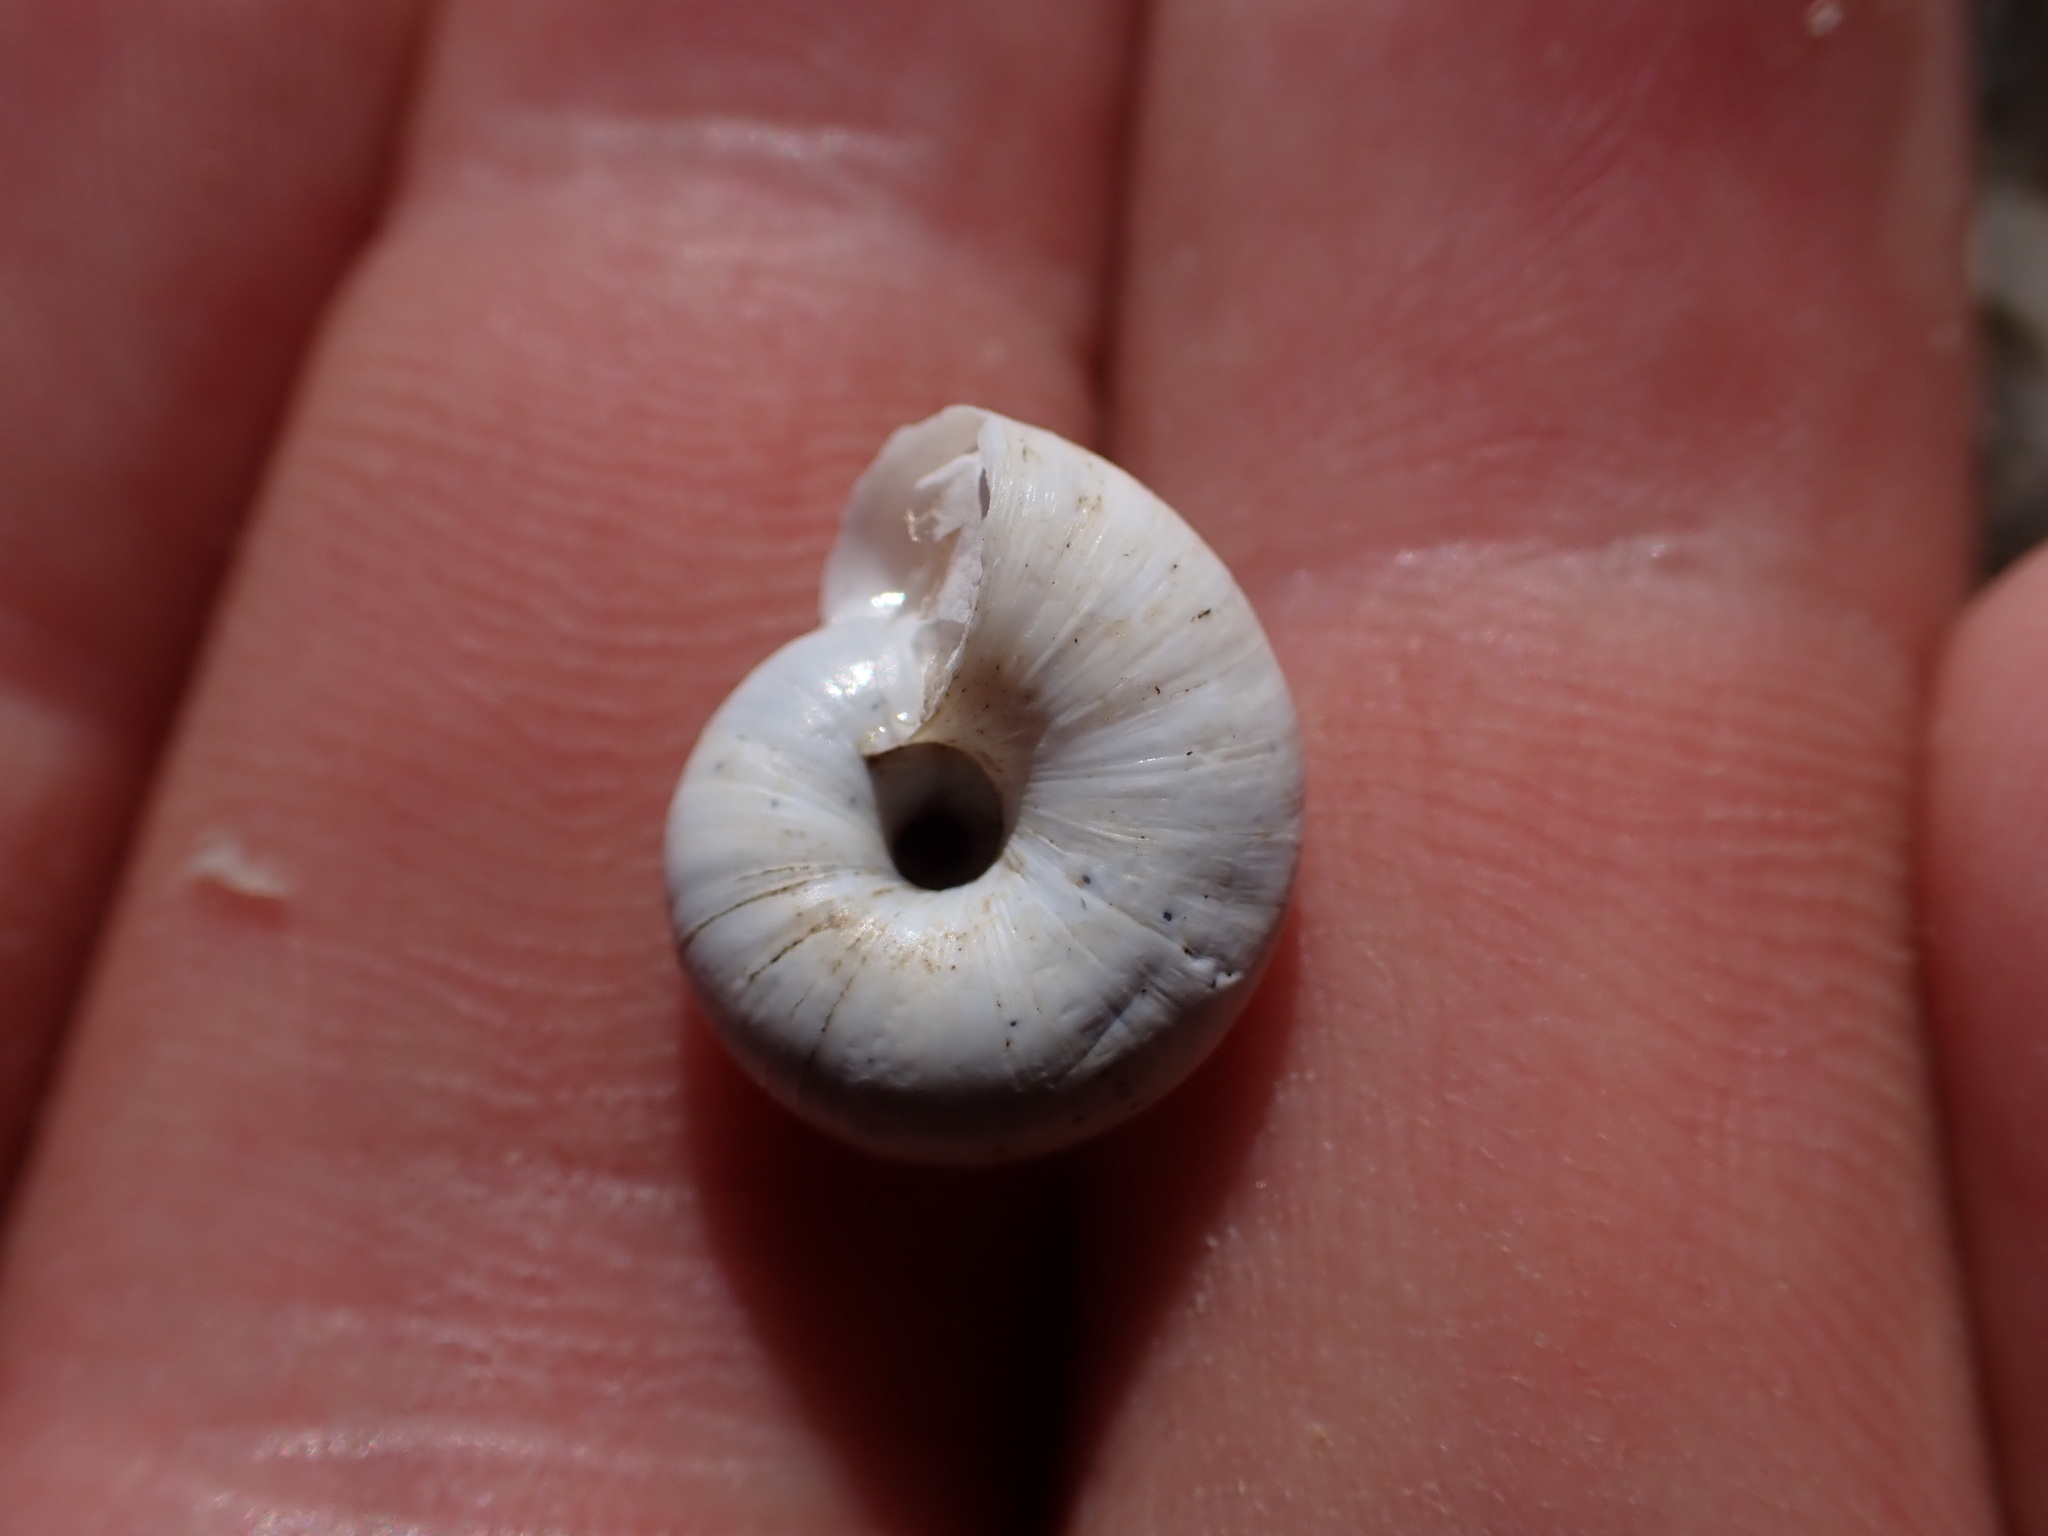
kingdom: Animalia
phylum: Mollusca
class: Gastropoda
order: Stylommatophora
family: Geomitridae
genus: Xeropicta
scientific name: Xeropicta derbentina
